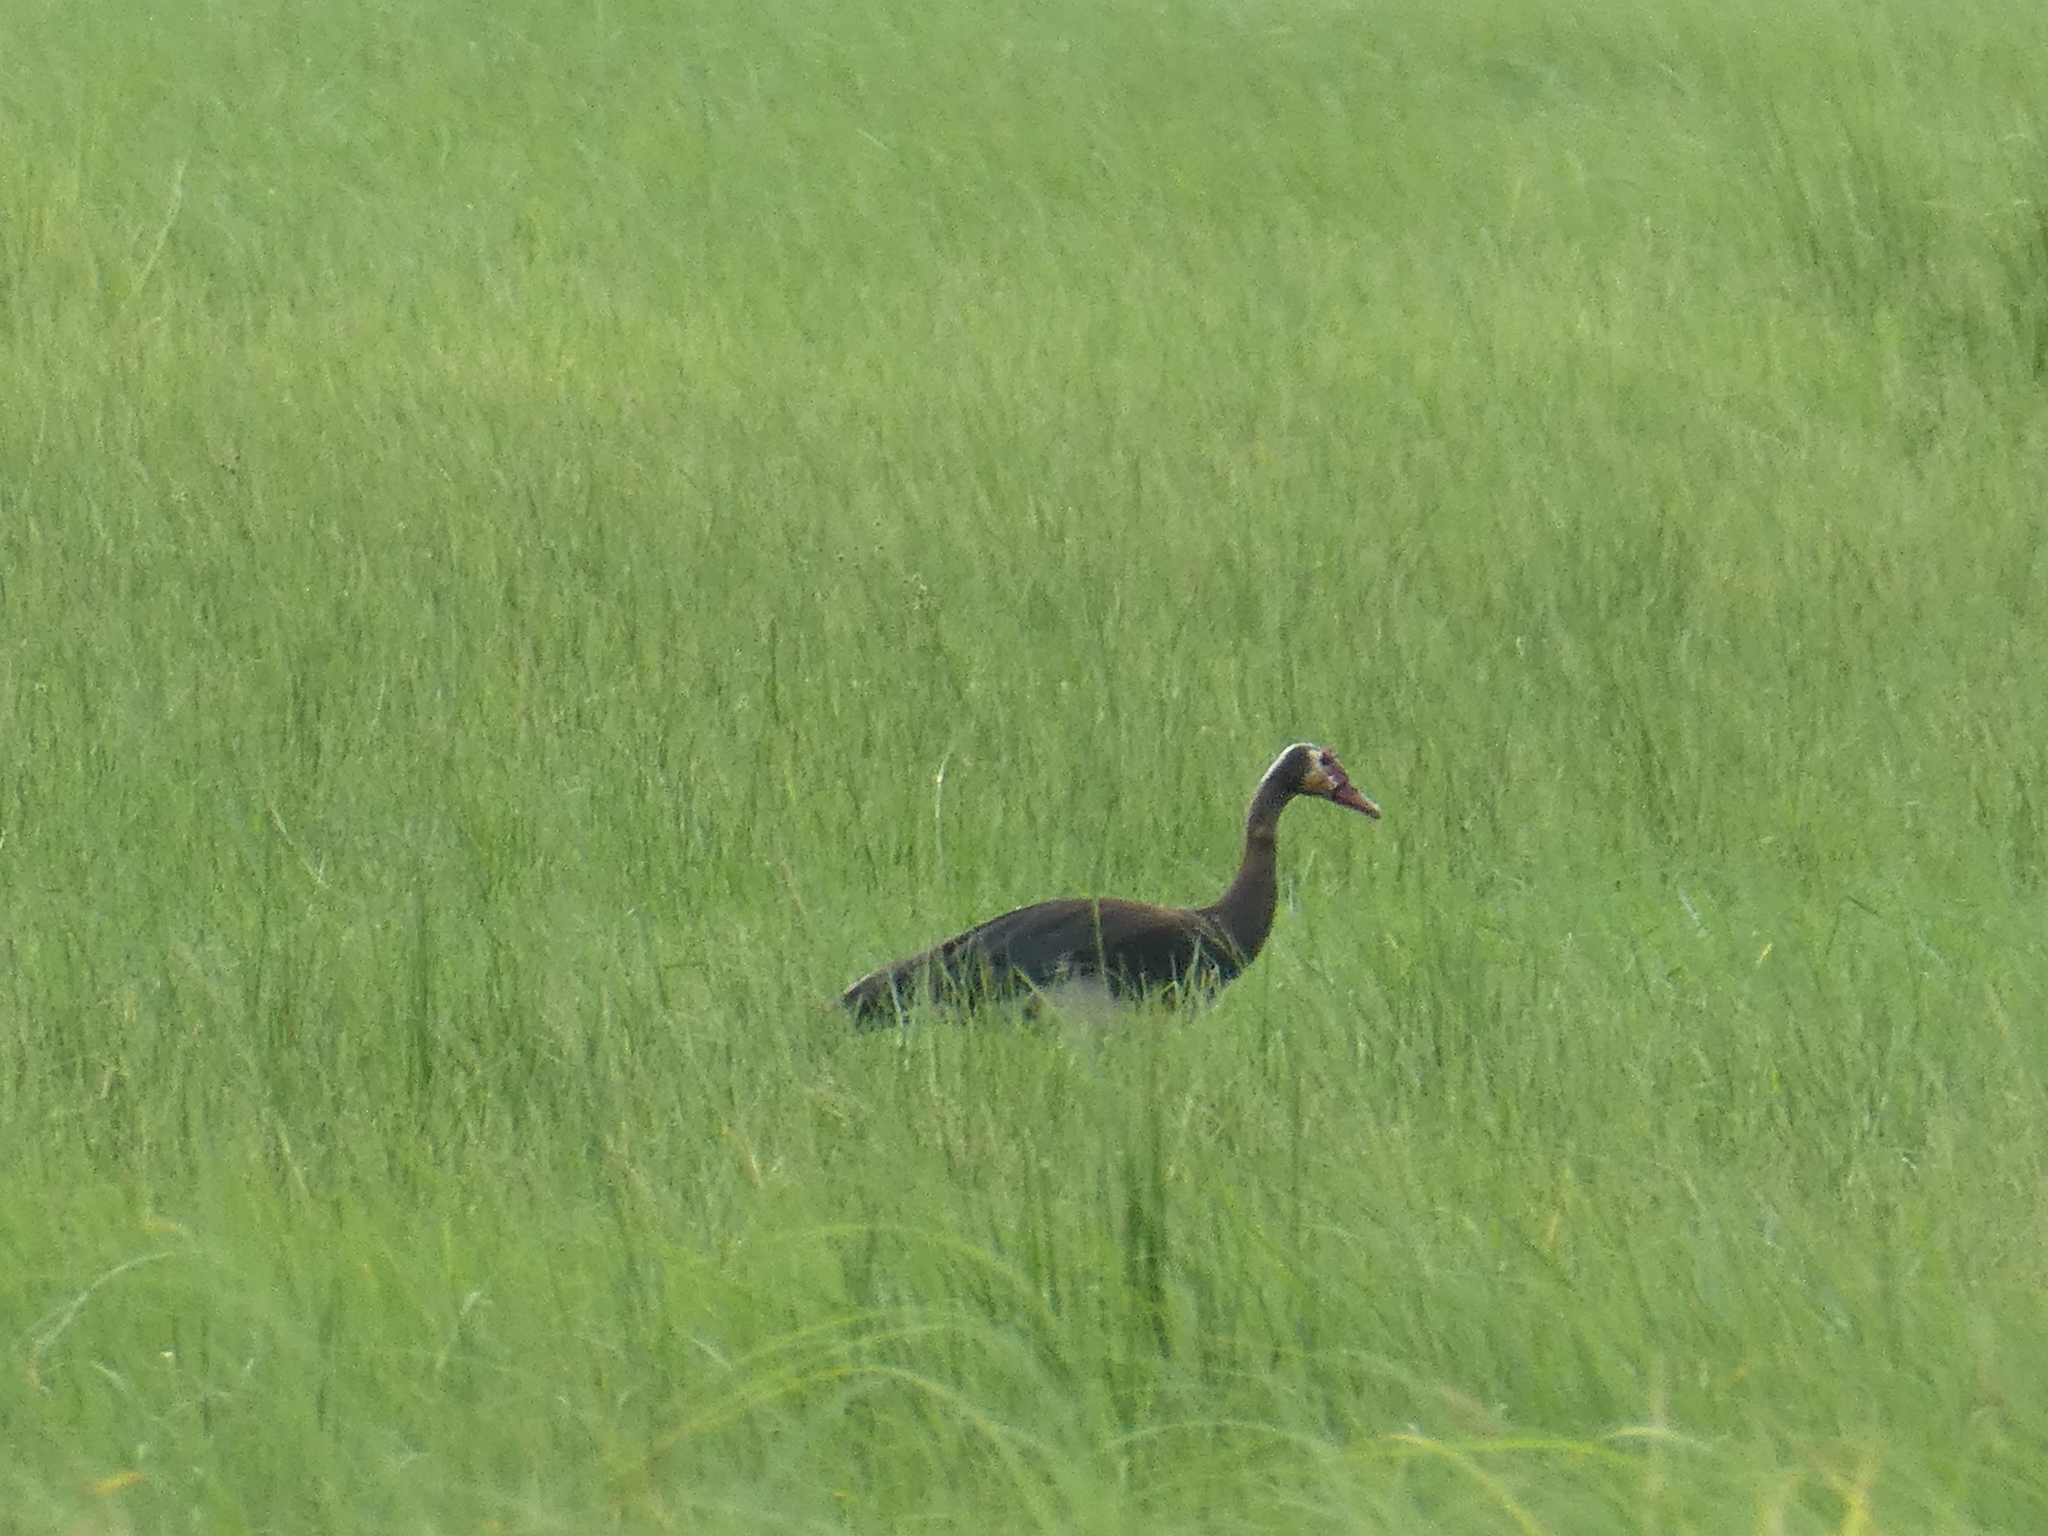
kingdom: Animalia
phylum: Chordata
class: Aves
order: Anseriformes
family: Anatidae
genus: Plectropterus
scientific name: Plectropterus gambensis
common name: Spur-winged goose
